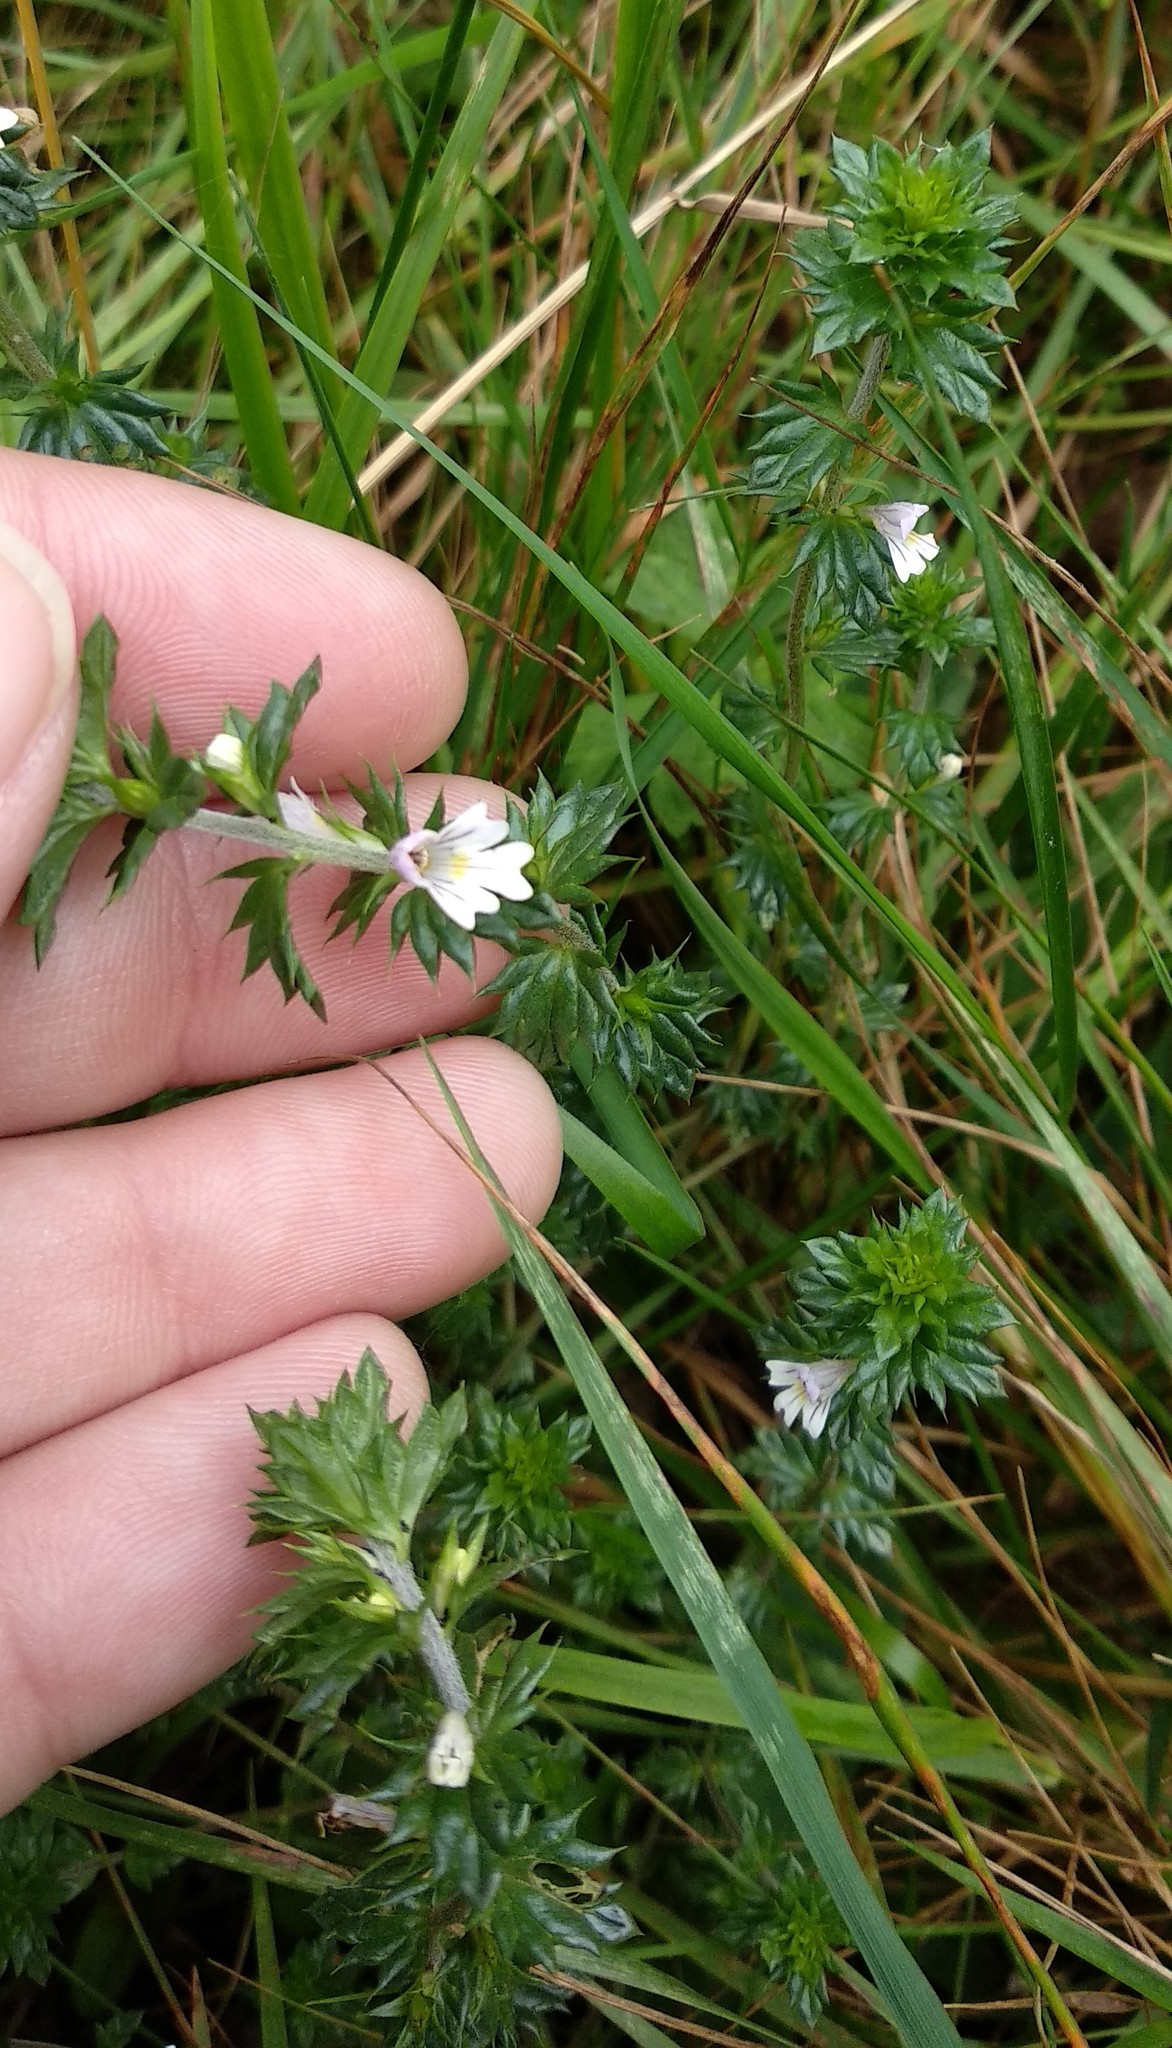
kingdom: Plantae
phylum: Tracheophyta
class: Magnoliopsida
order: Lamiales
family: Orobanchaceae
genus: Euphrasia
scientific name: Euphrasia stricta
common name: Drug eyebright
